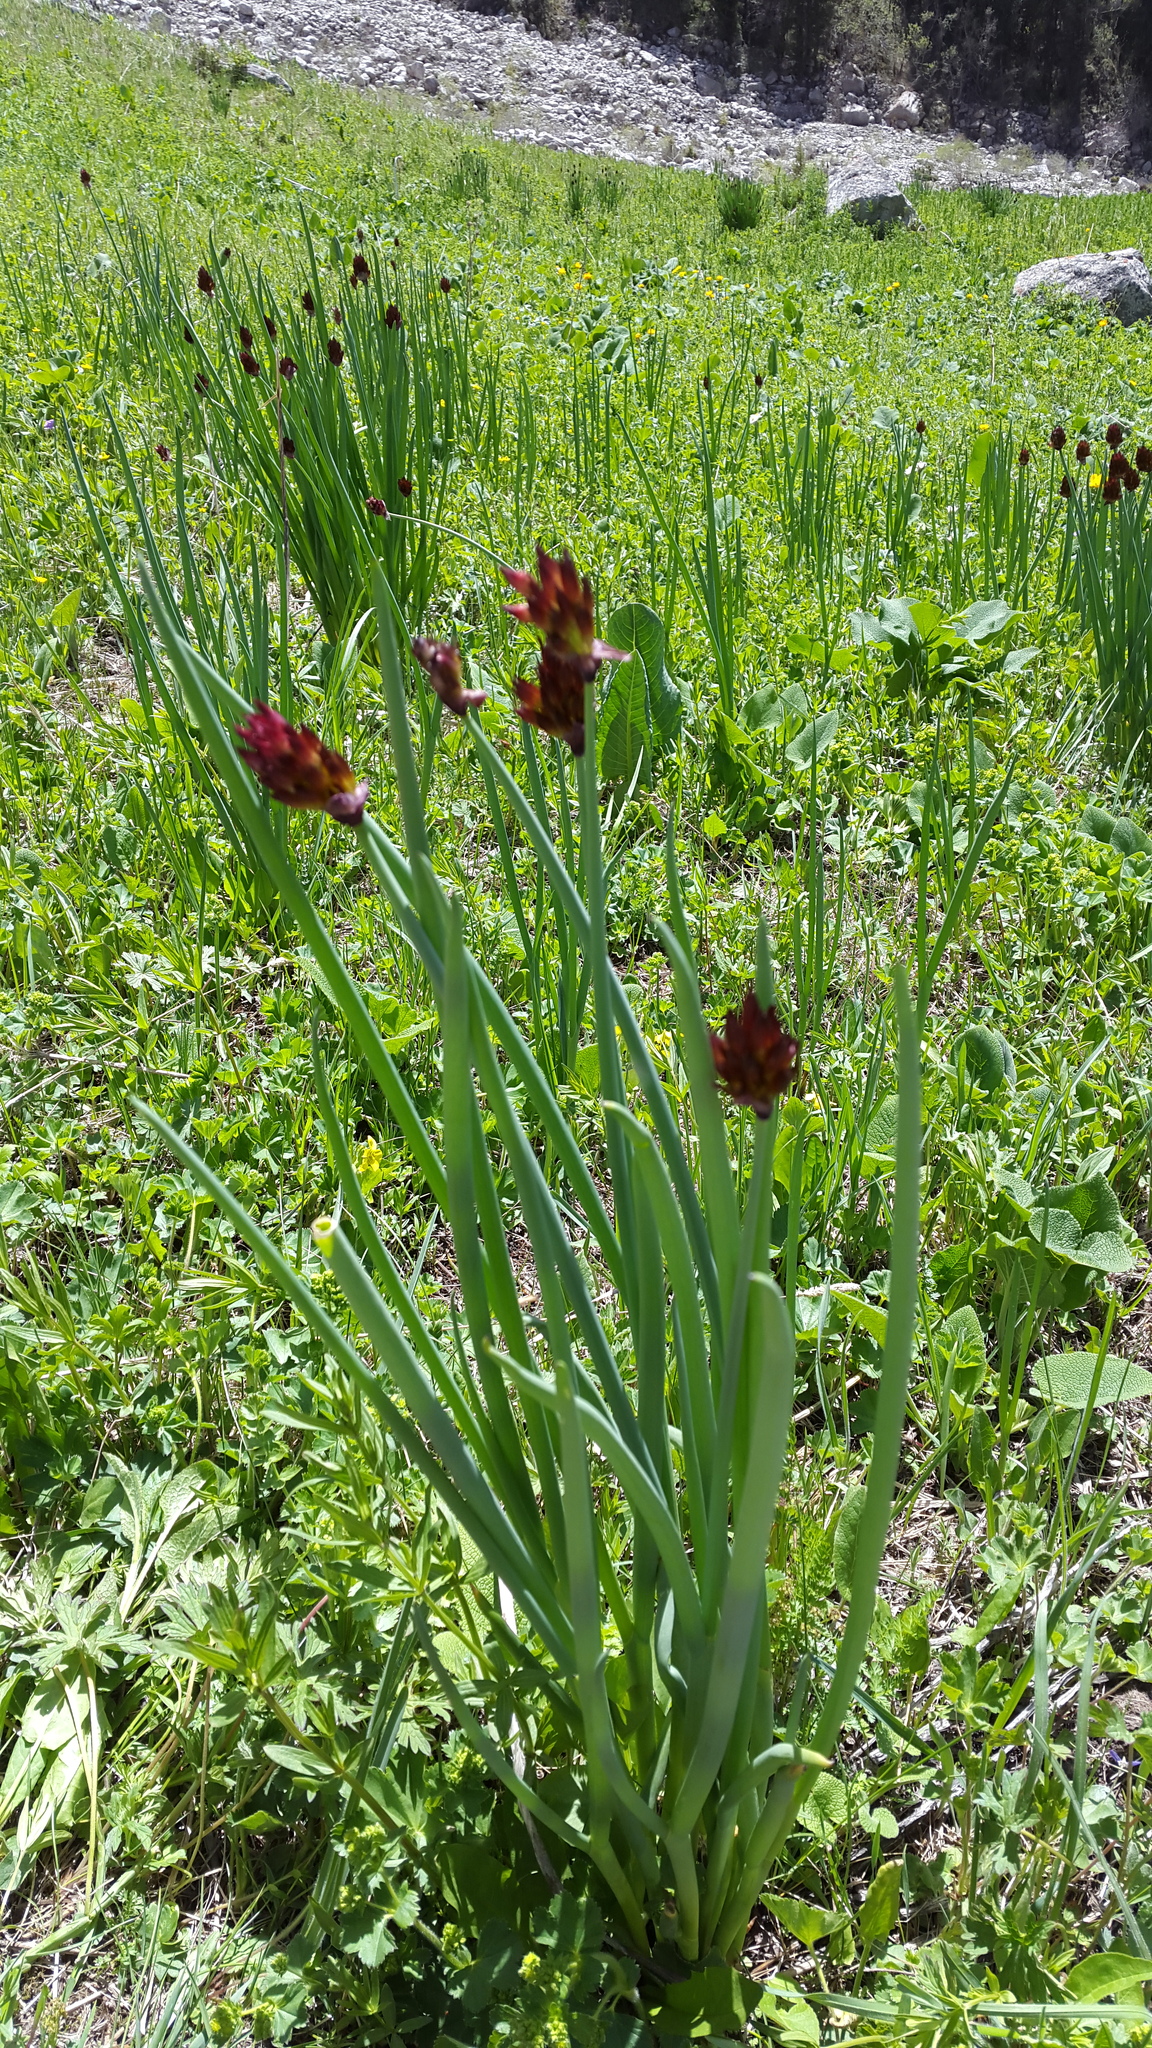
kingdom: Plantae
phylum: Tracheophyta
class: Liliopsida
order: Asparagales
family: Amaryllidaceae
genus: Allium
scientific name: Allium atrosanguineum
